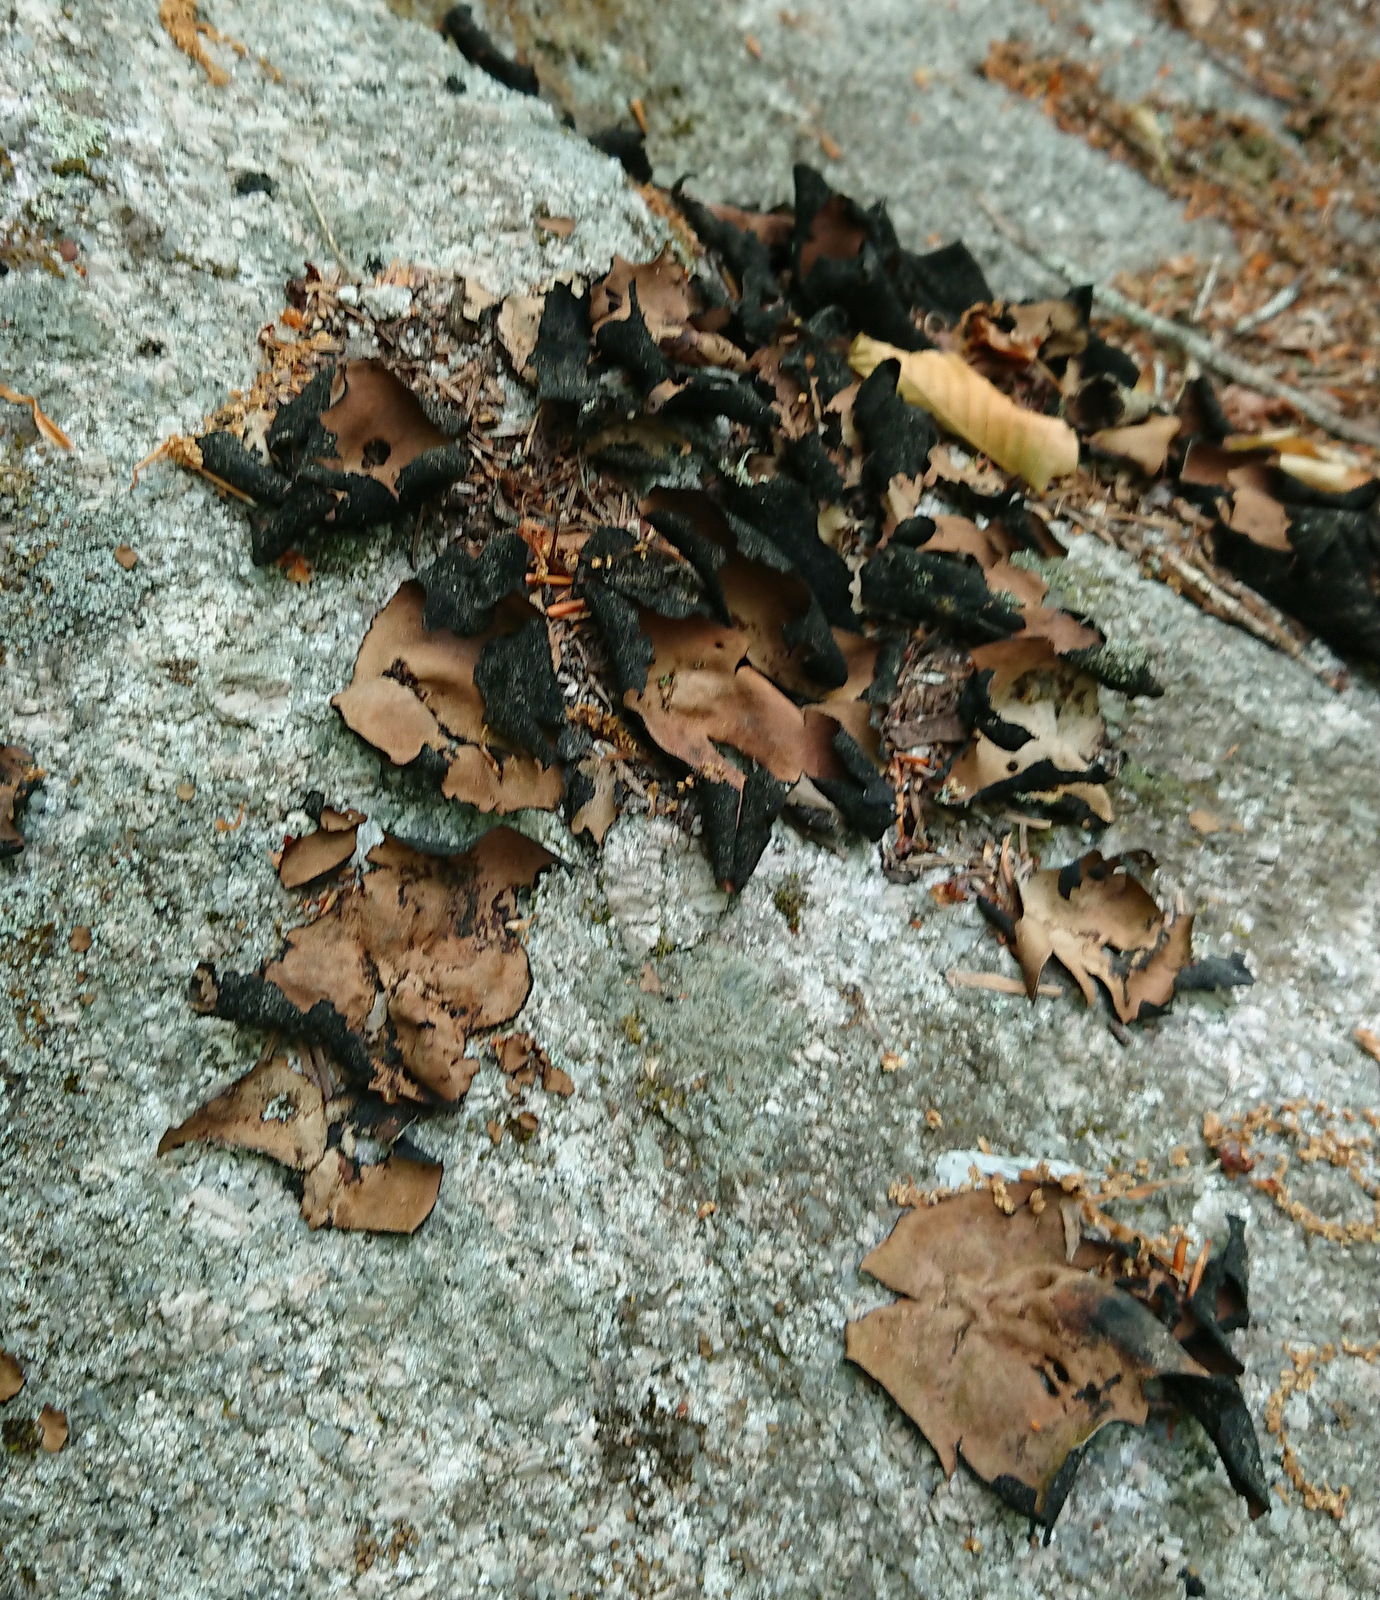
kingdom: Fungi
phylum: Ascomycota
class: Lecanoromycetes
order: Umbilicariales
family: Umbilicariaceae
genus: Umbilicaria
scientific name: Umbilicaria mammulata
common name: Smooth rock tripe
